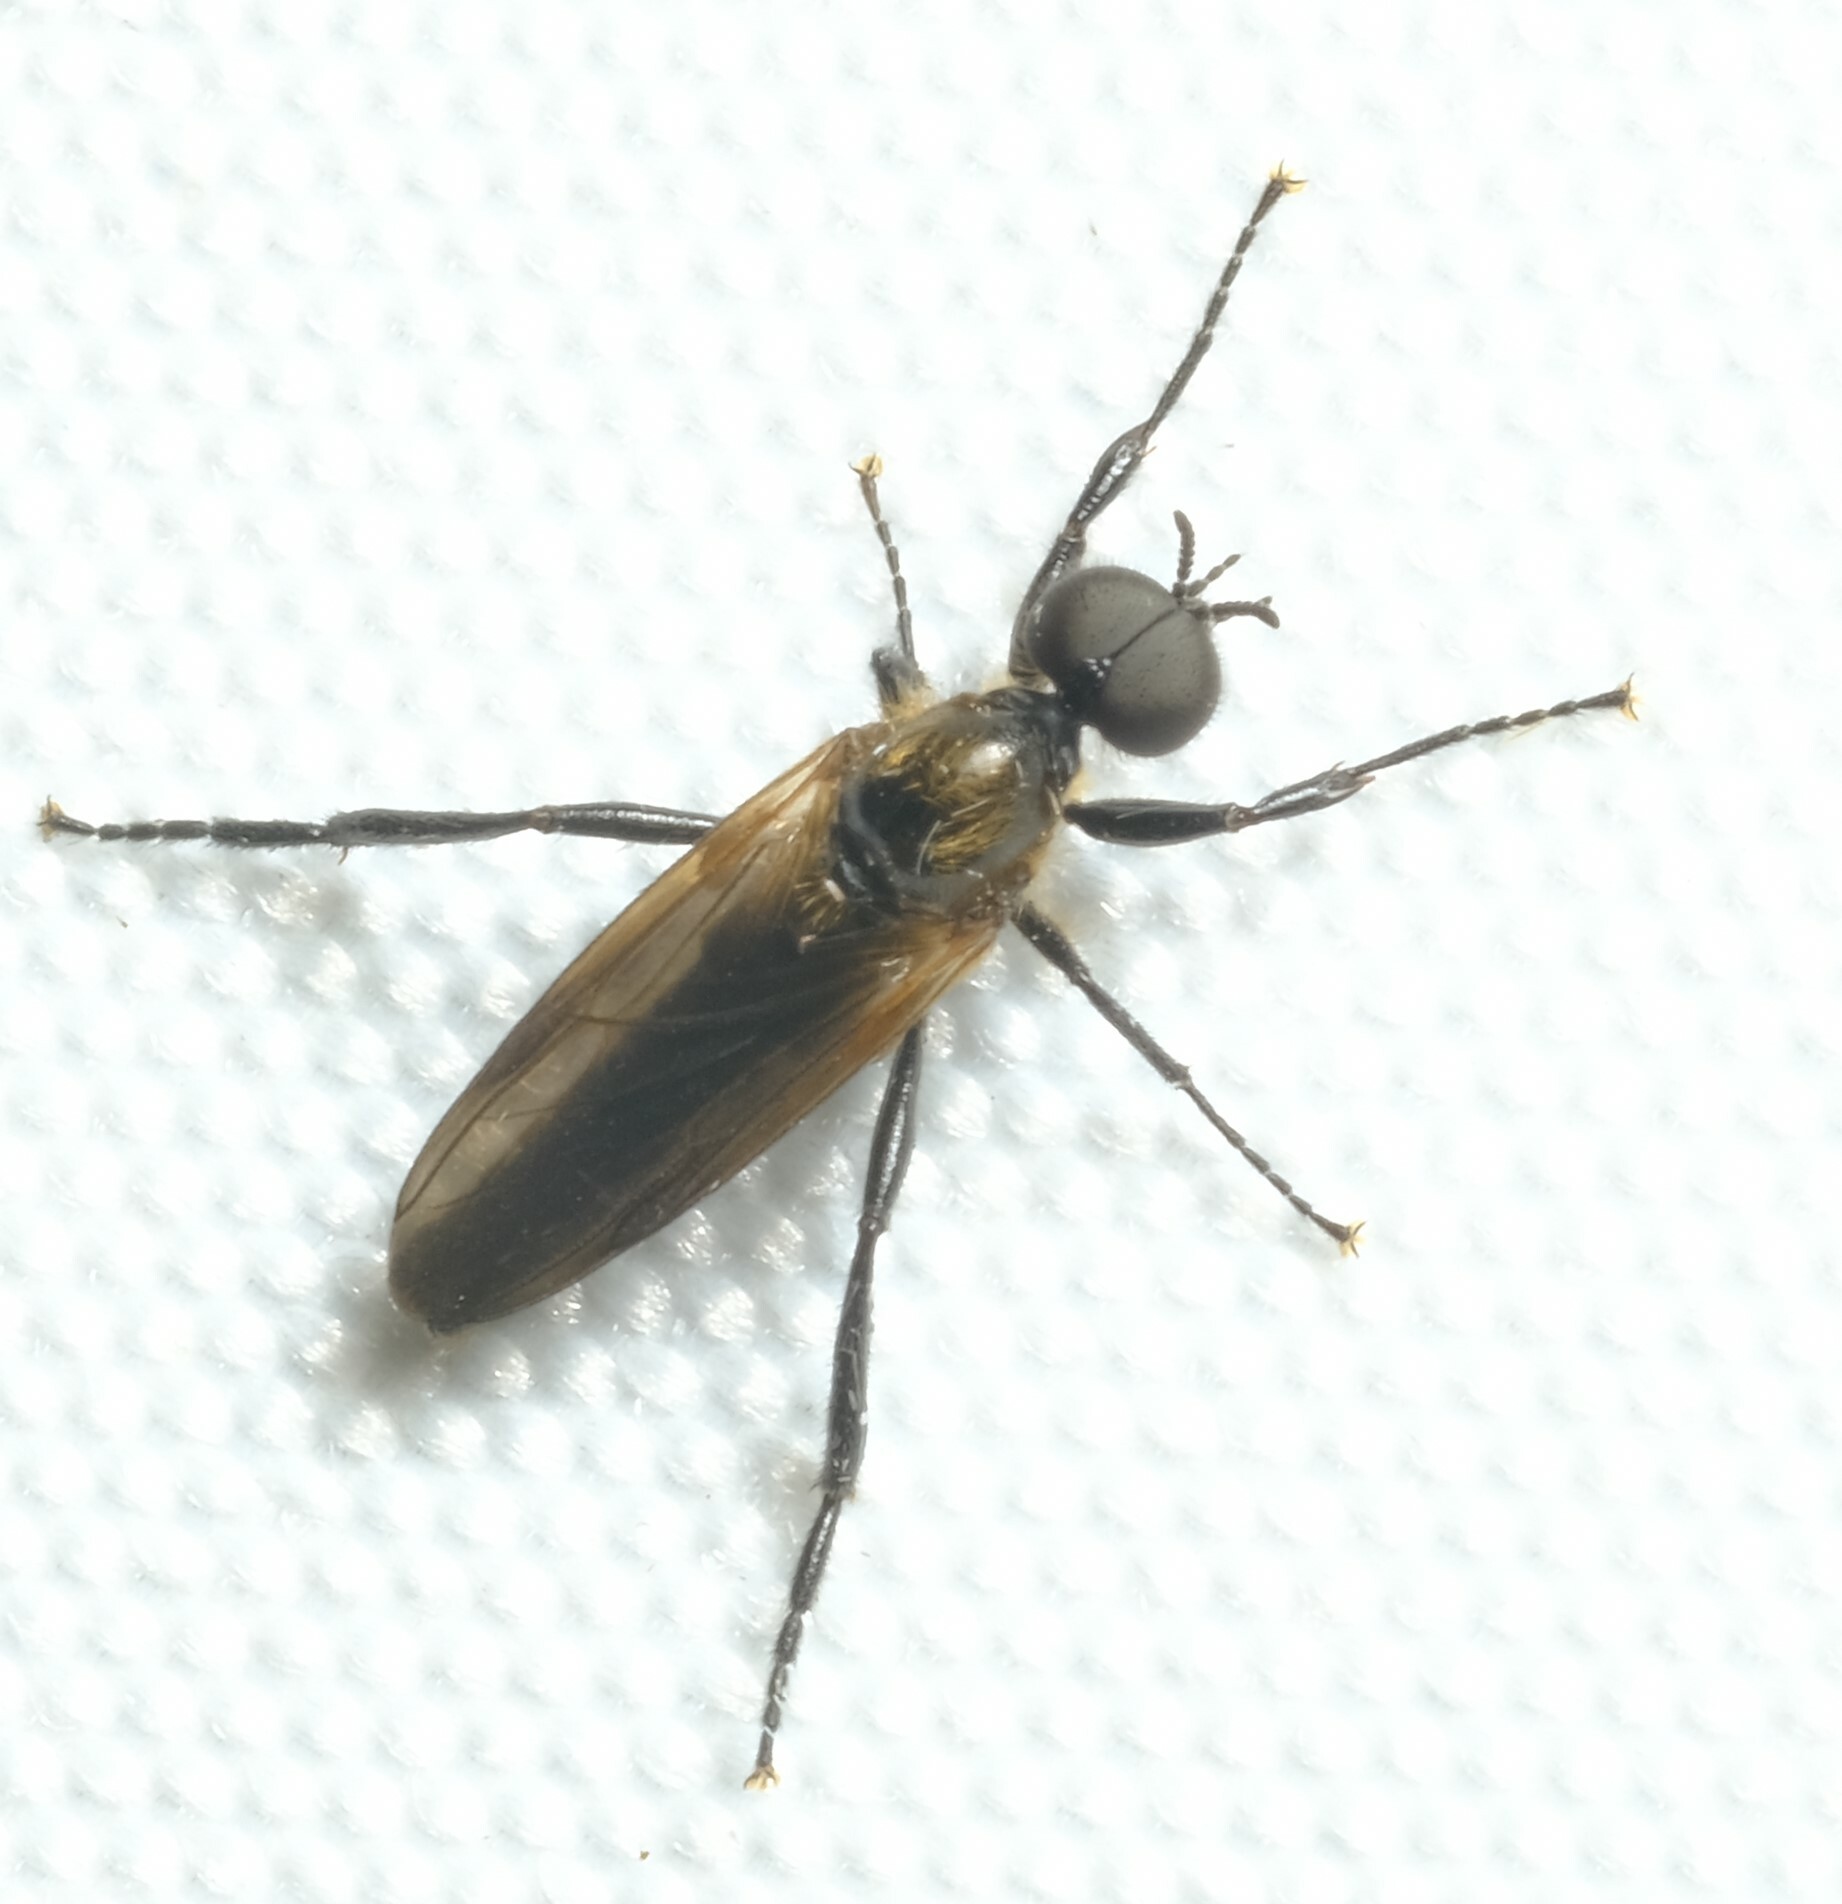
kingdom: Animalia
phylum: Arthropoda
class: Insecta
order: Diptera
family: Bibionidae
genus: Bibio
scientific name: Bibio imitator
